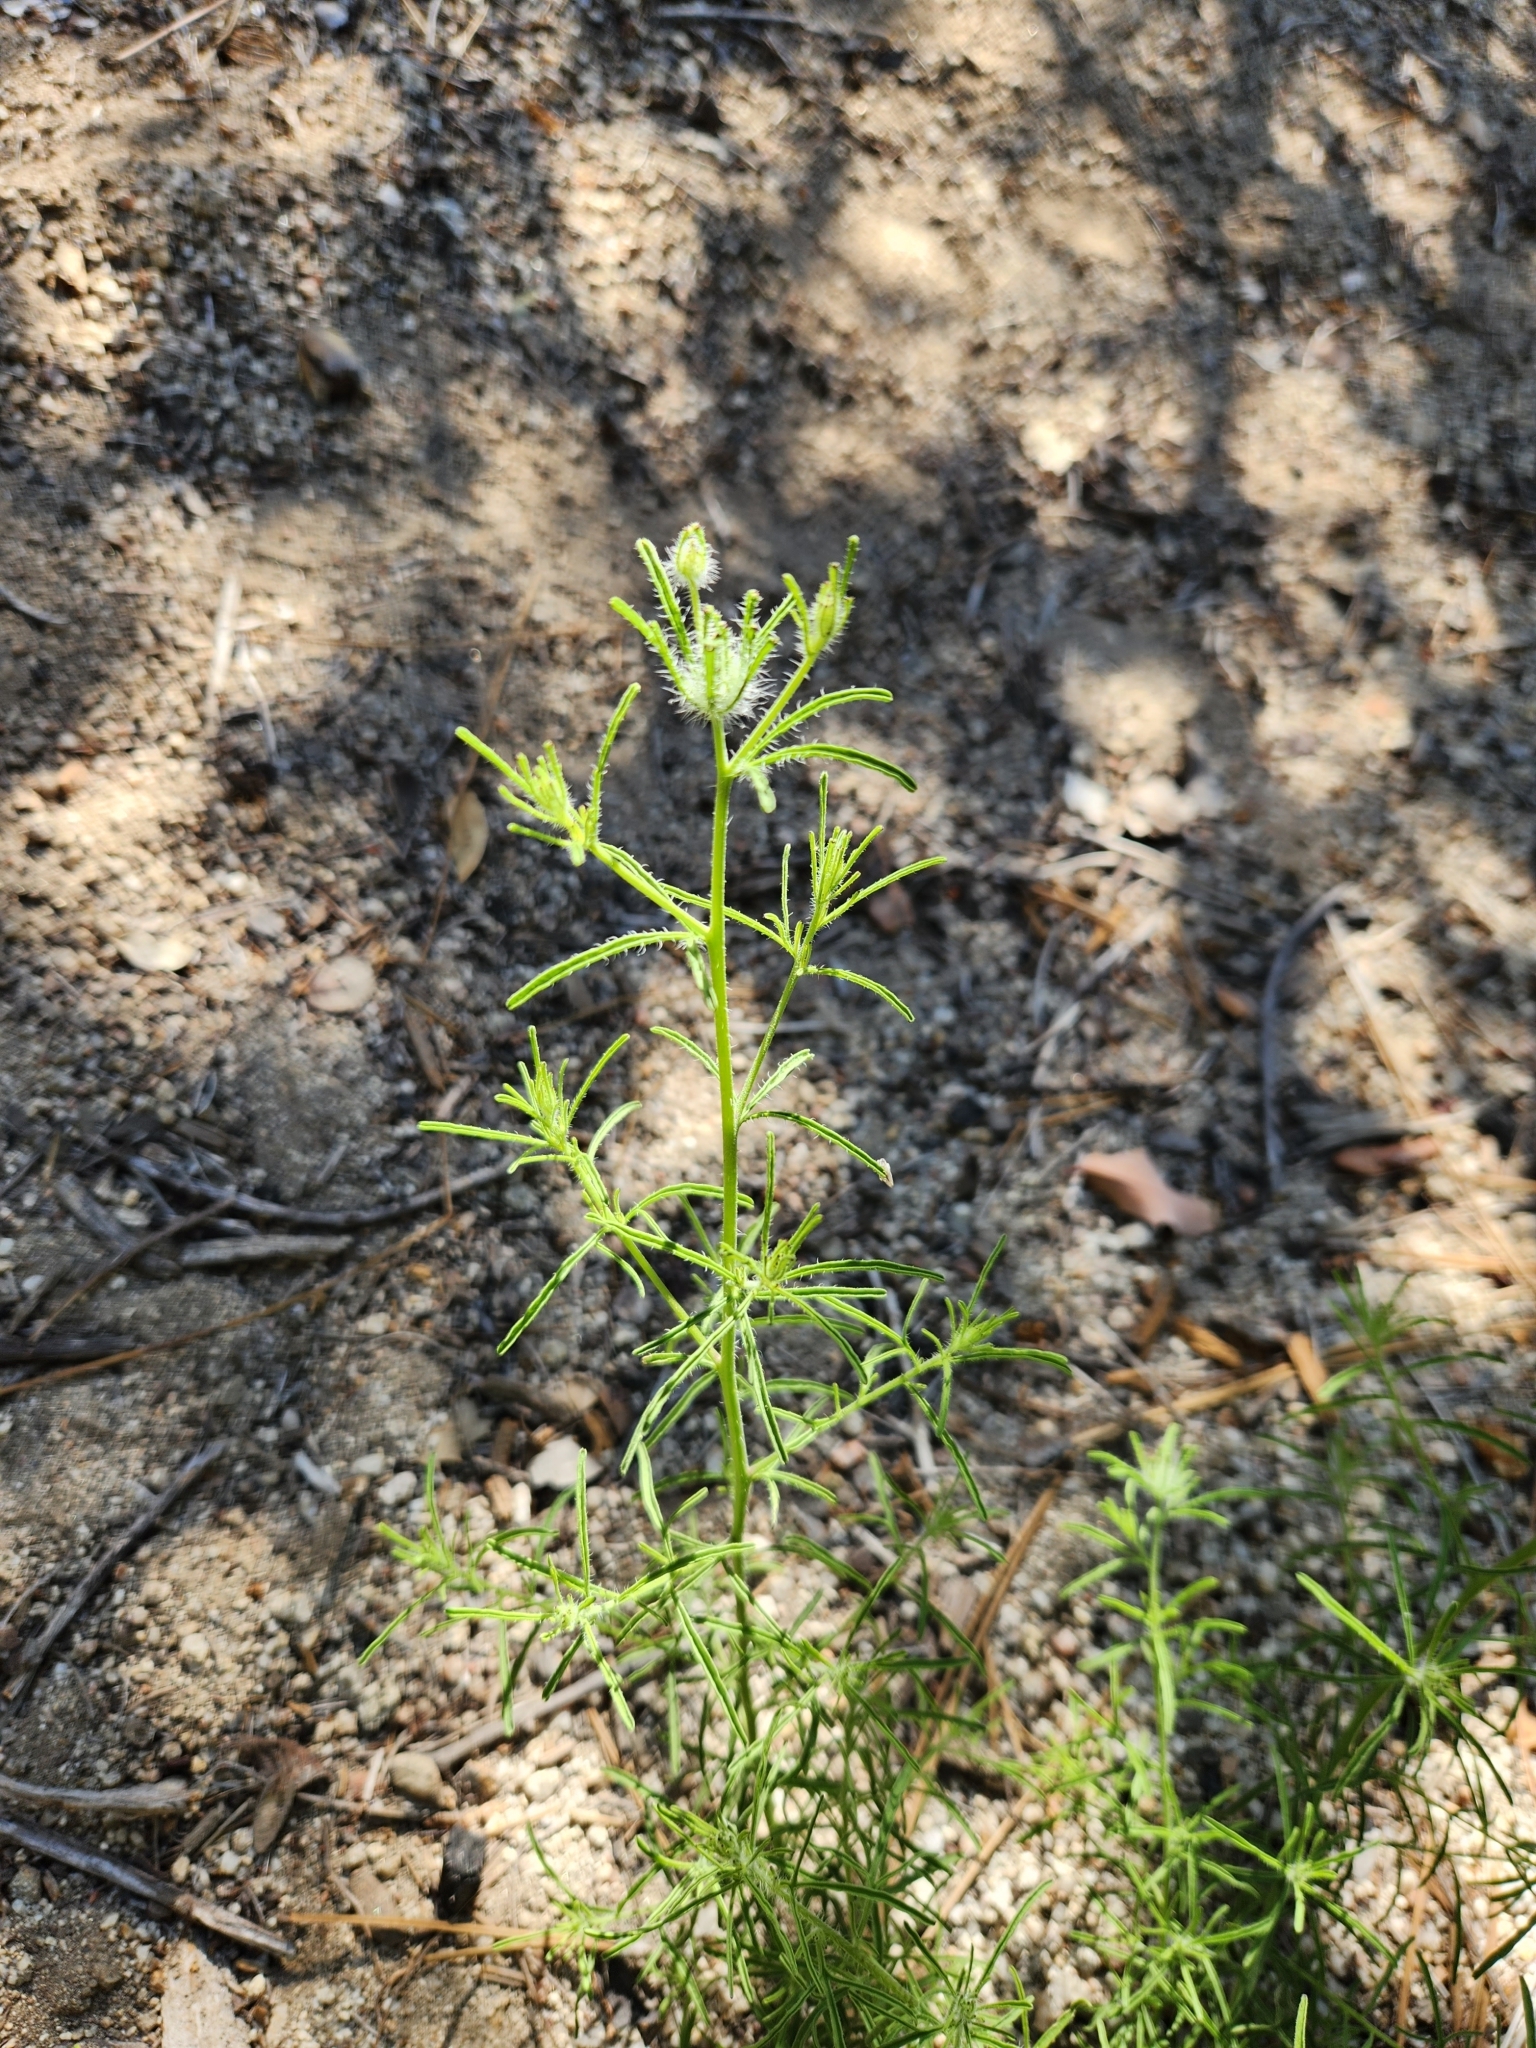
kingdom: Plantae
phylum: Tracheophyta
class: Magnoliopsida
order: Lamiales
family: Orobanchaceae
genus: Cordylanthus
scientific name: Cordylanthus rigidus
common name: Stiff-branch bird's-beak
